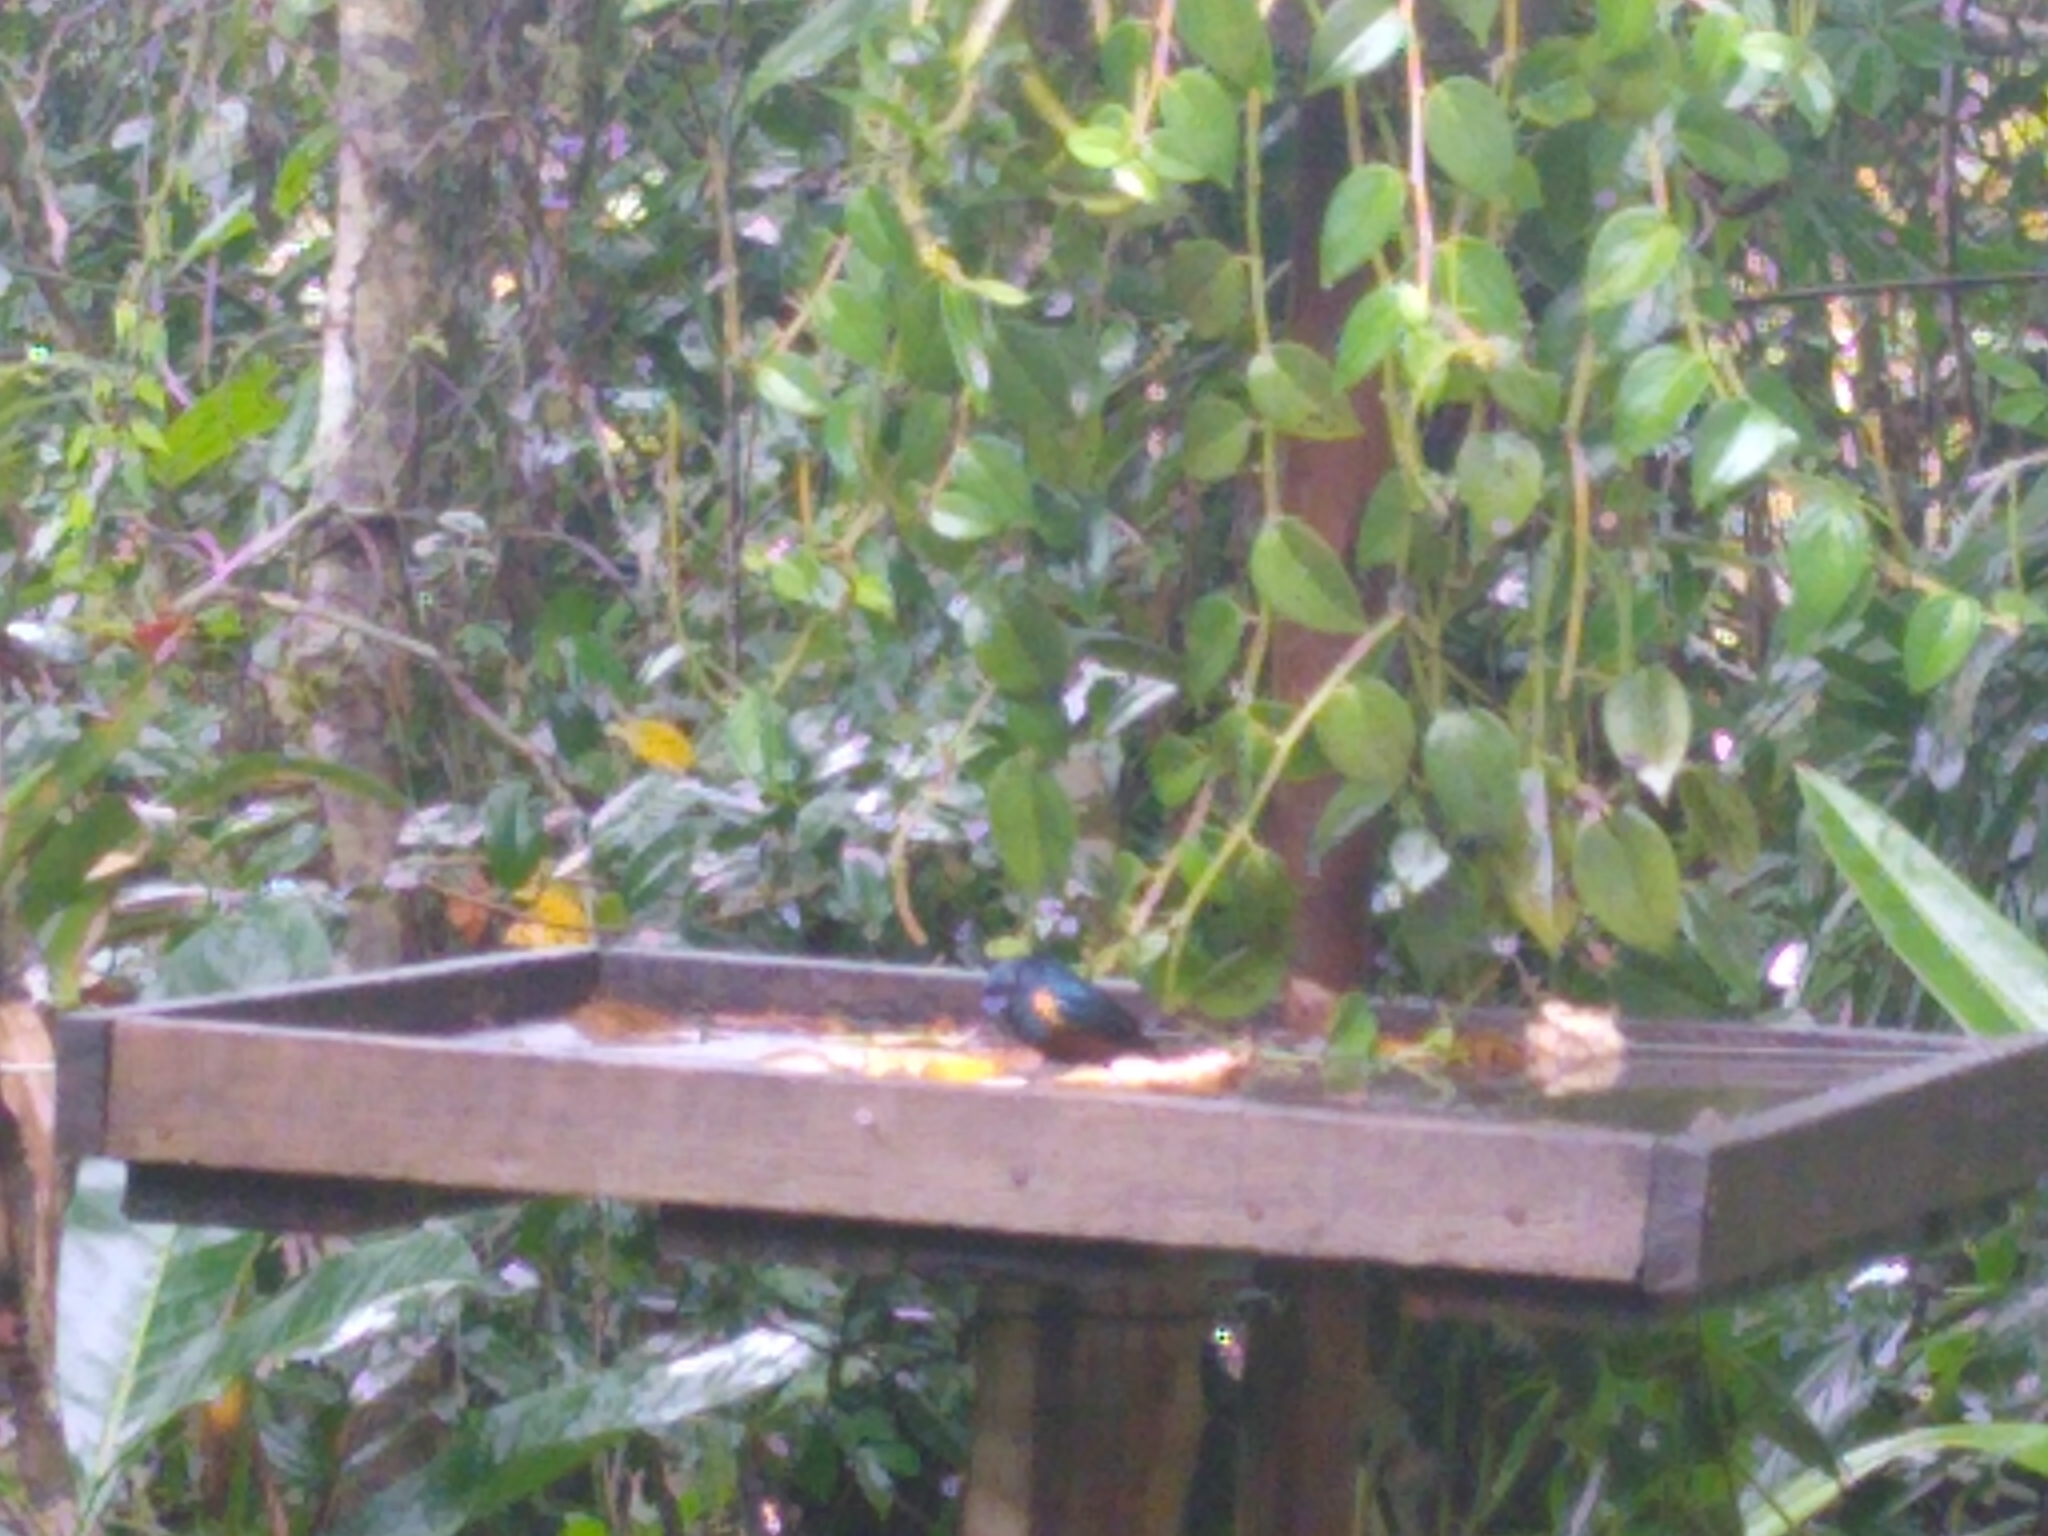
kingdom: Animalia
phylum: Chordata
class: Aves
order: Passeriformes
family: Fringillidae
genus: Euphonia
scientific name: Euphonia pectoralis
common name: Chestnut-bellied euphonia
